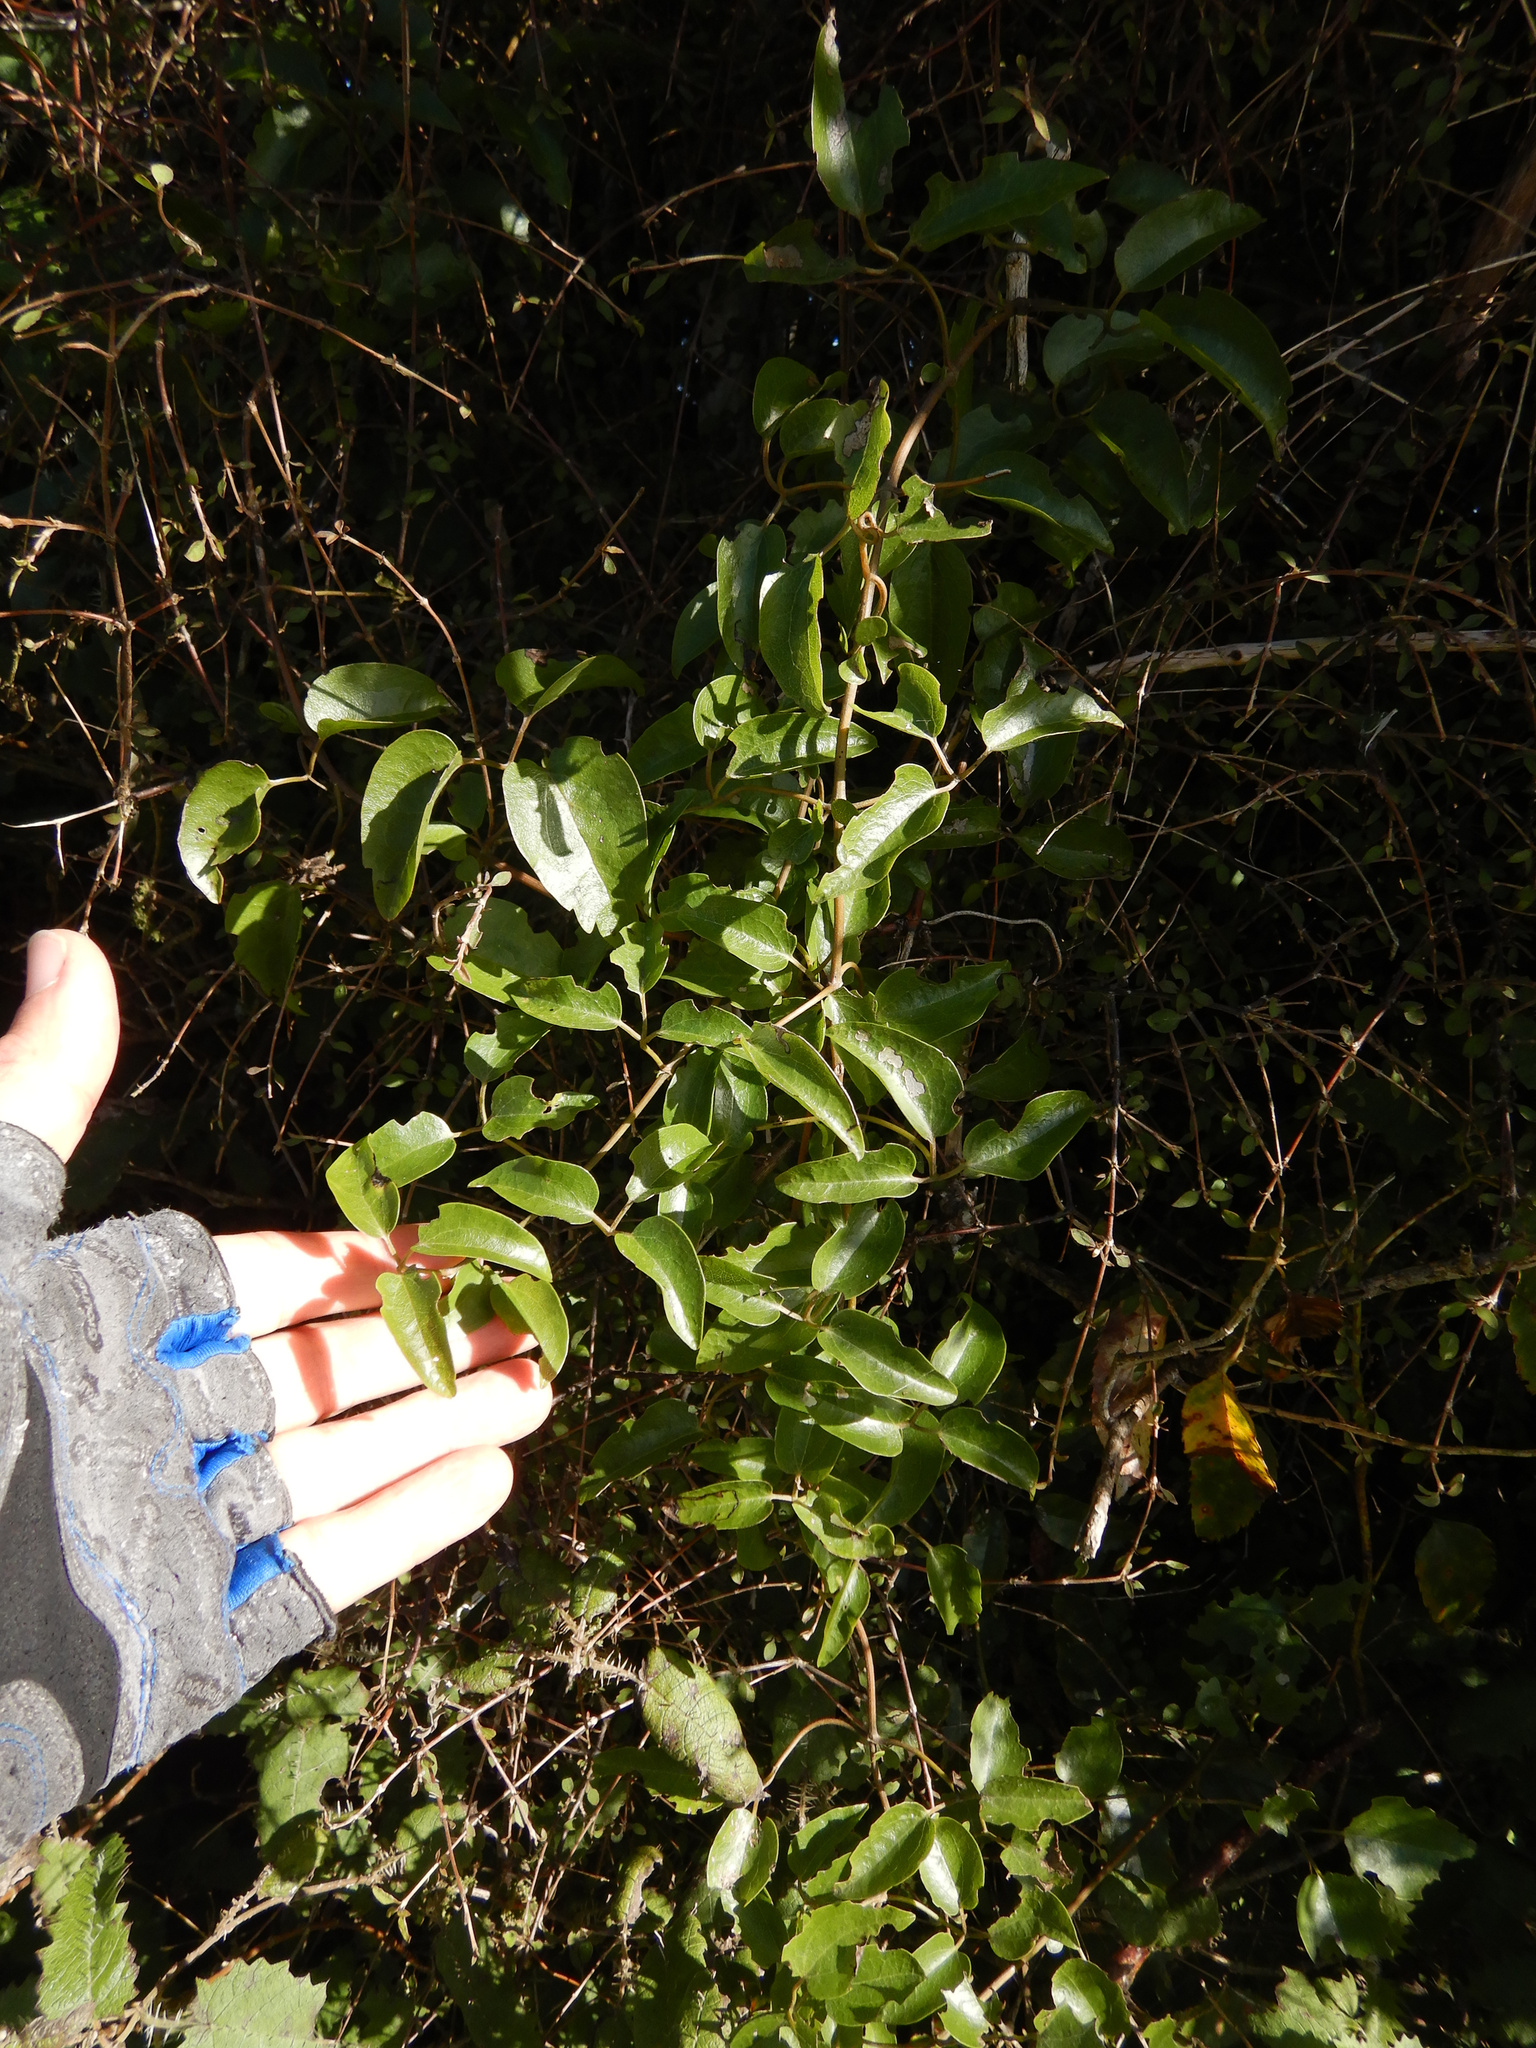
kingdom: Plantae
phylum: Tracheophyta
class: Magnoliopsida
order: Ranunculales
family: Ranunculaceae
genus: Clematis
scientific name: Clematis paniculata
